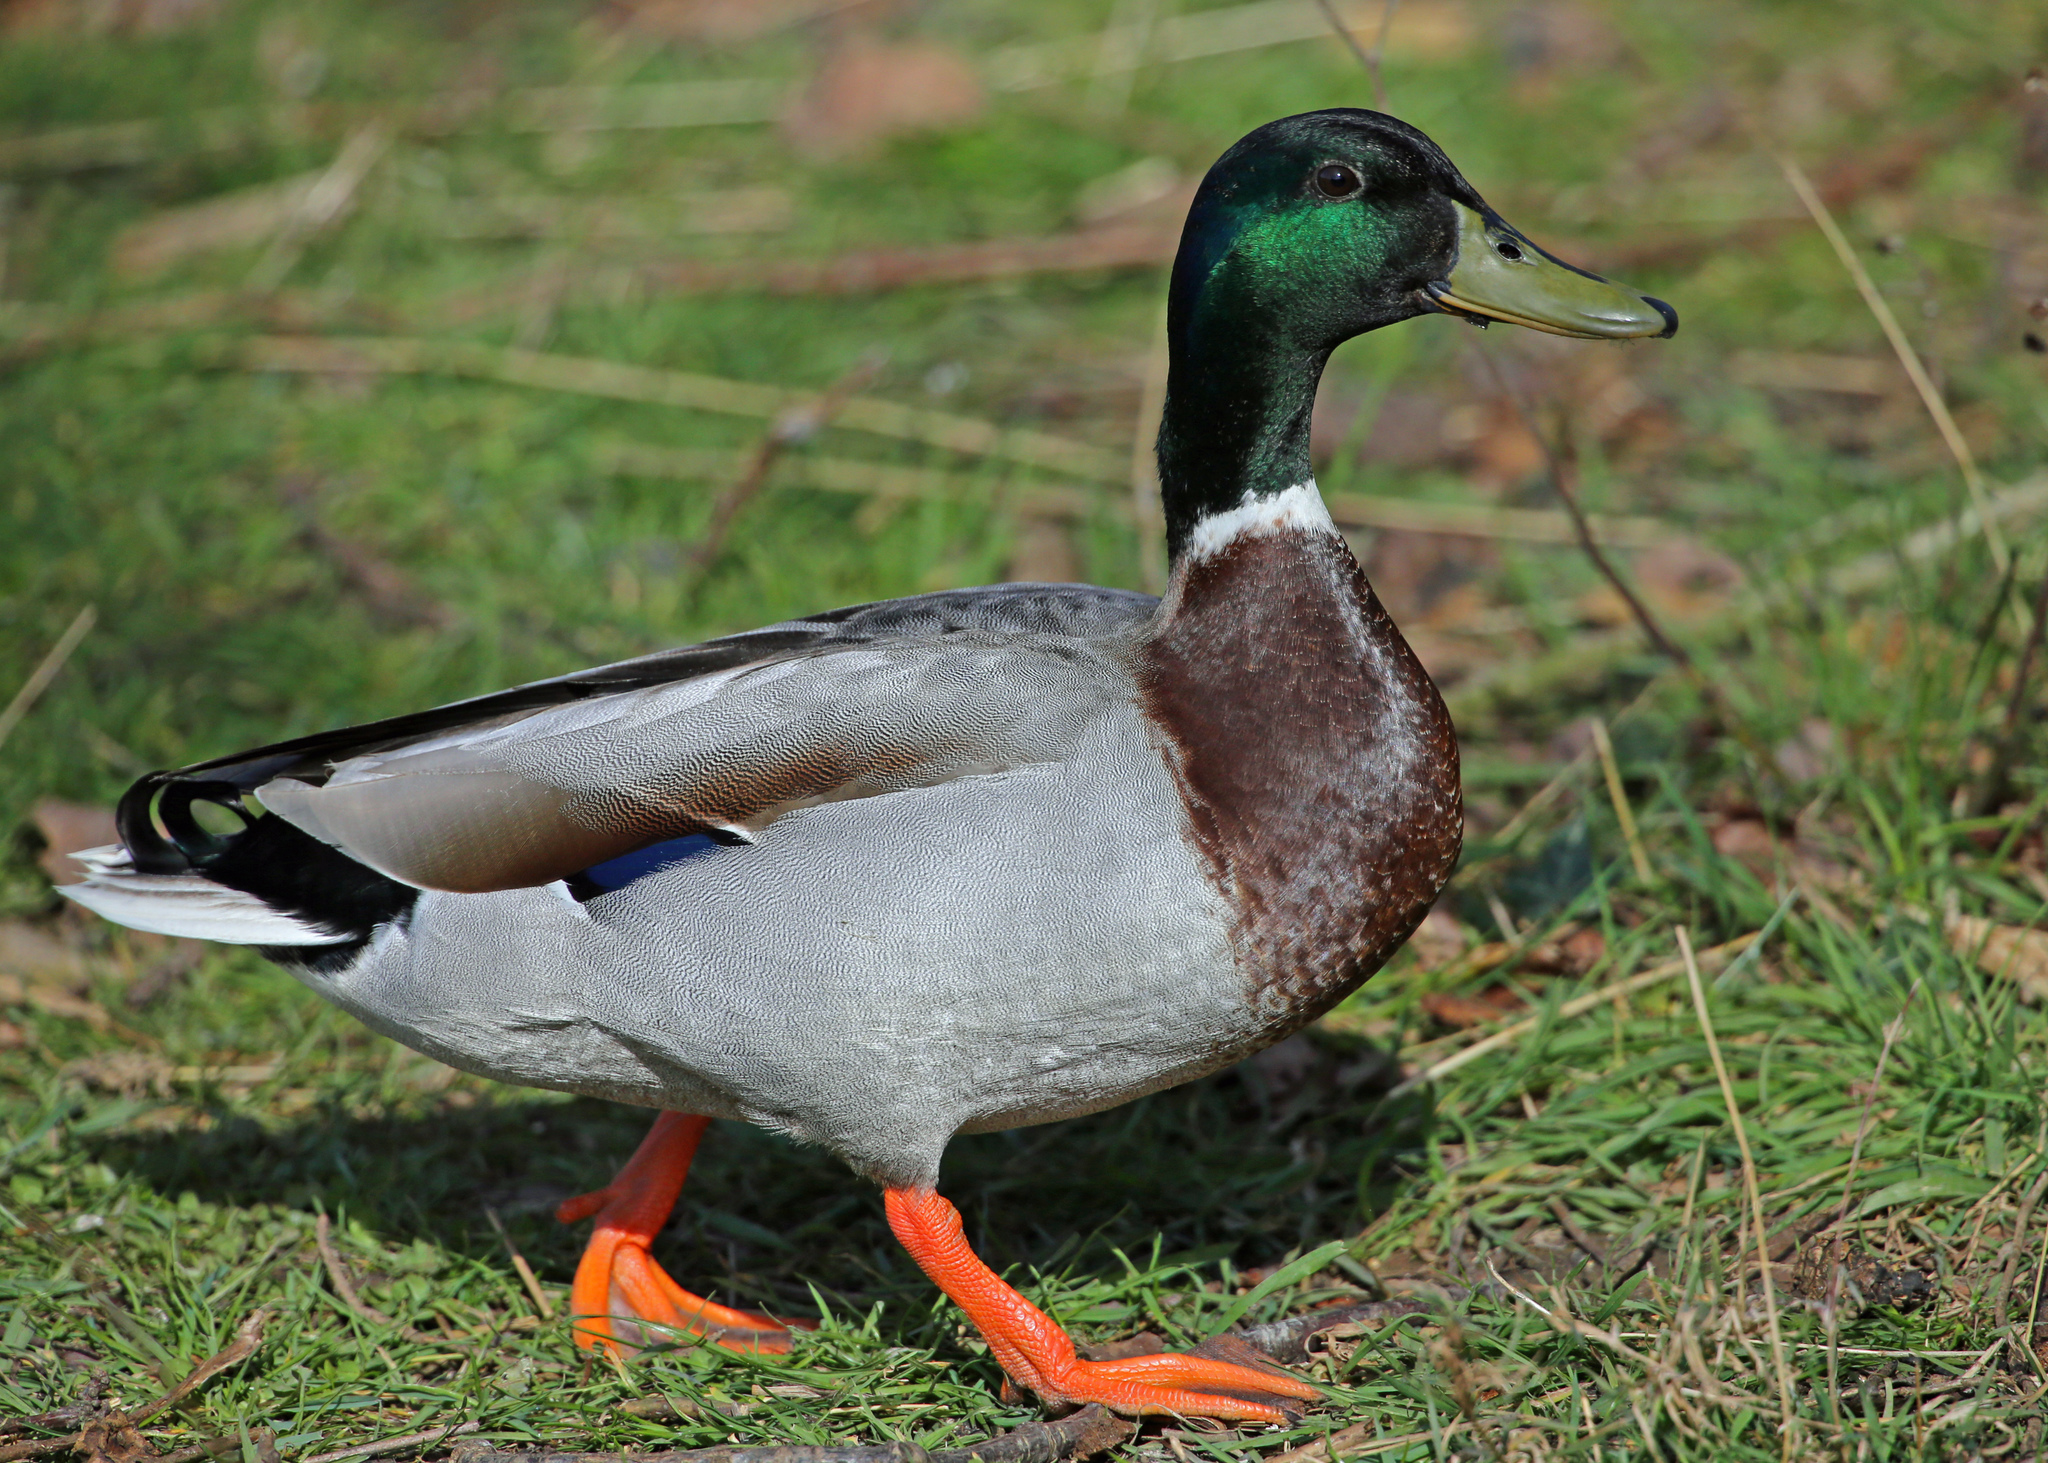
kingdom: Animalia
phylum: Chordata
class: Aves
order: Anseriformes
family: Anatidae
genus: Anas
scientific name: Anas platyrhynchos
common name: Mallard
